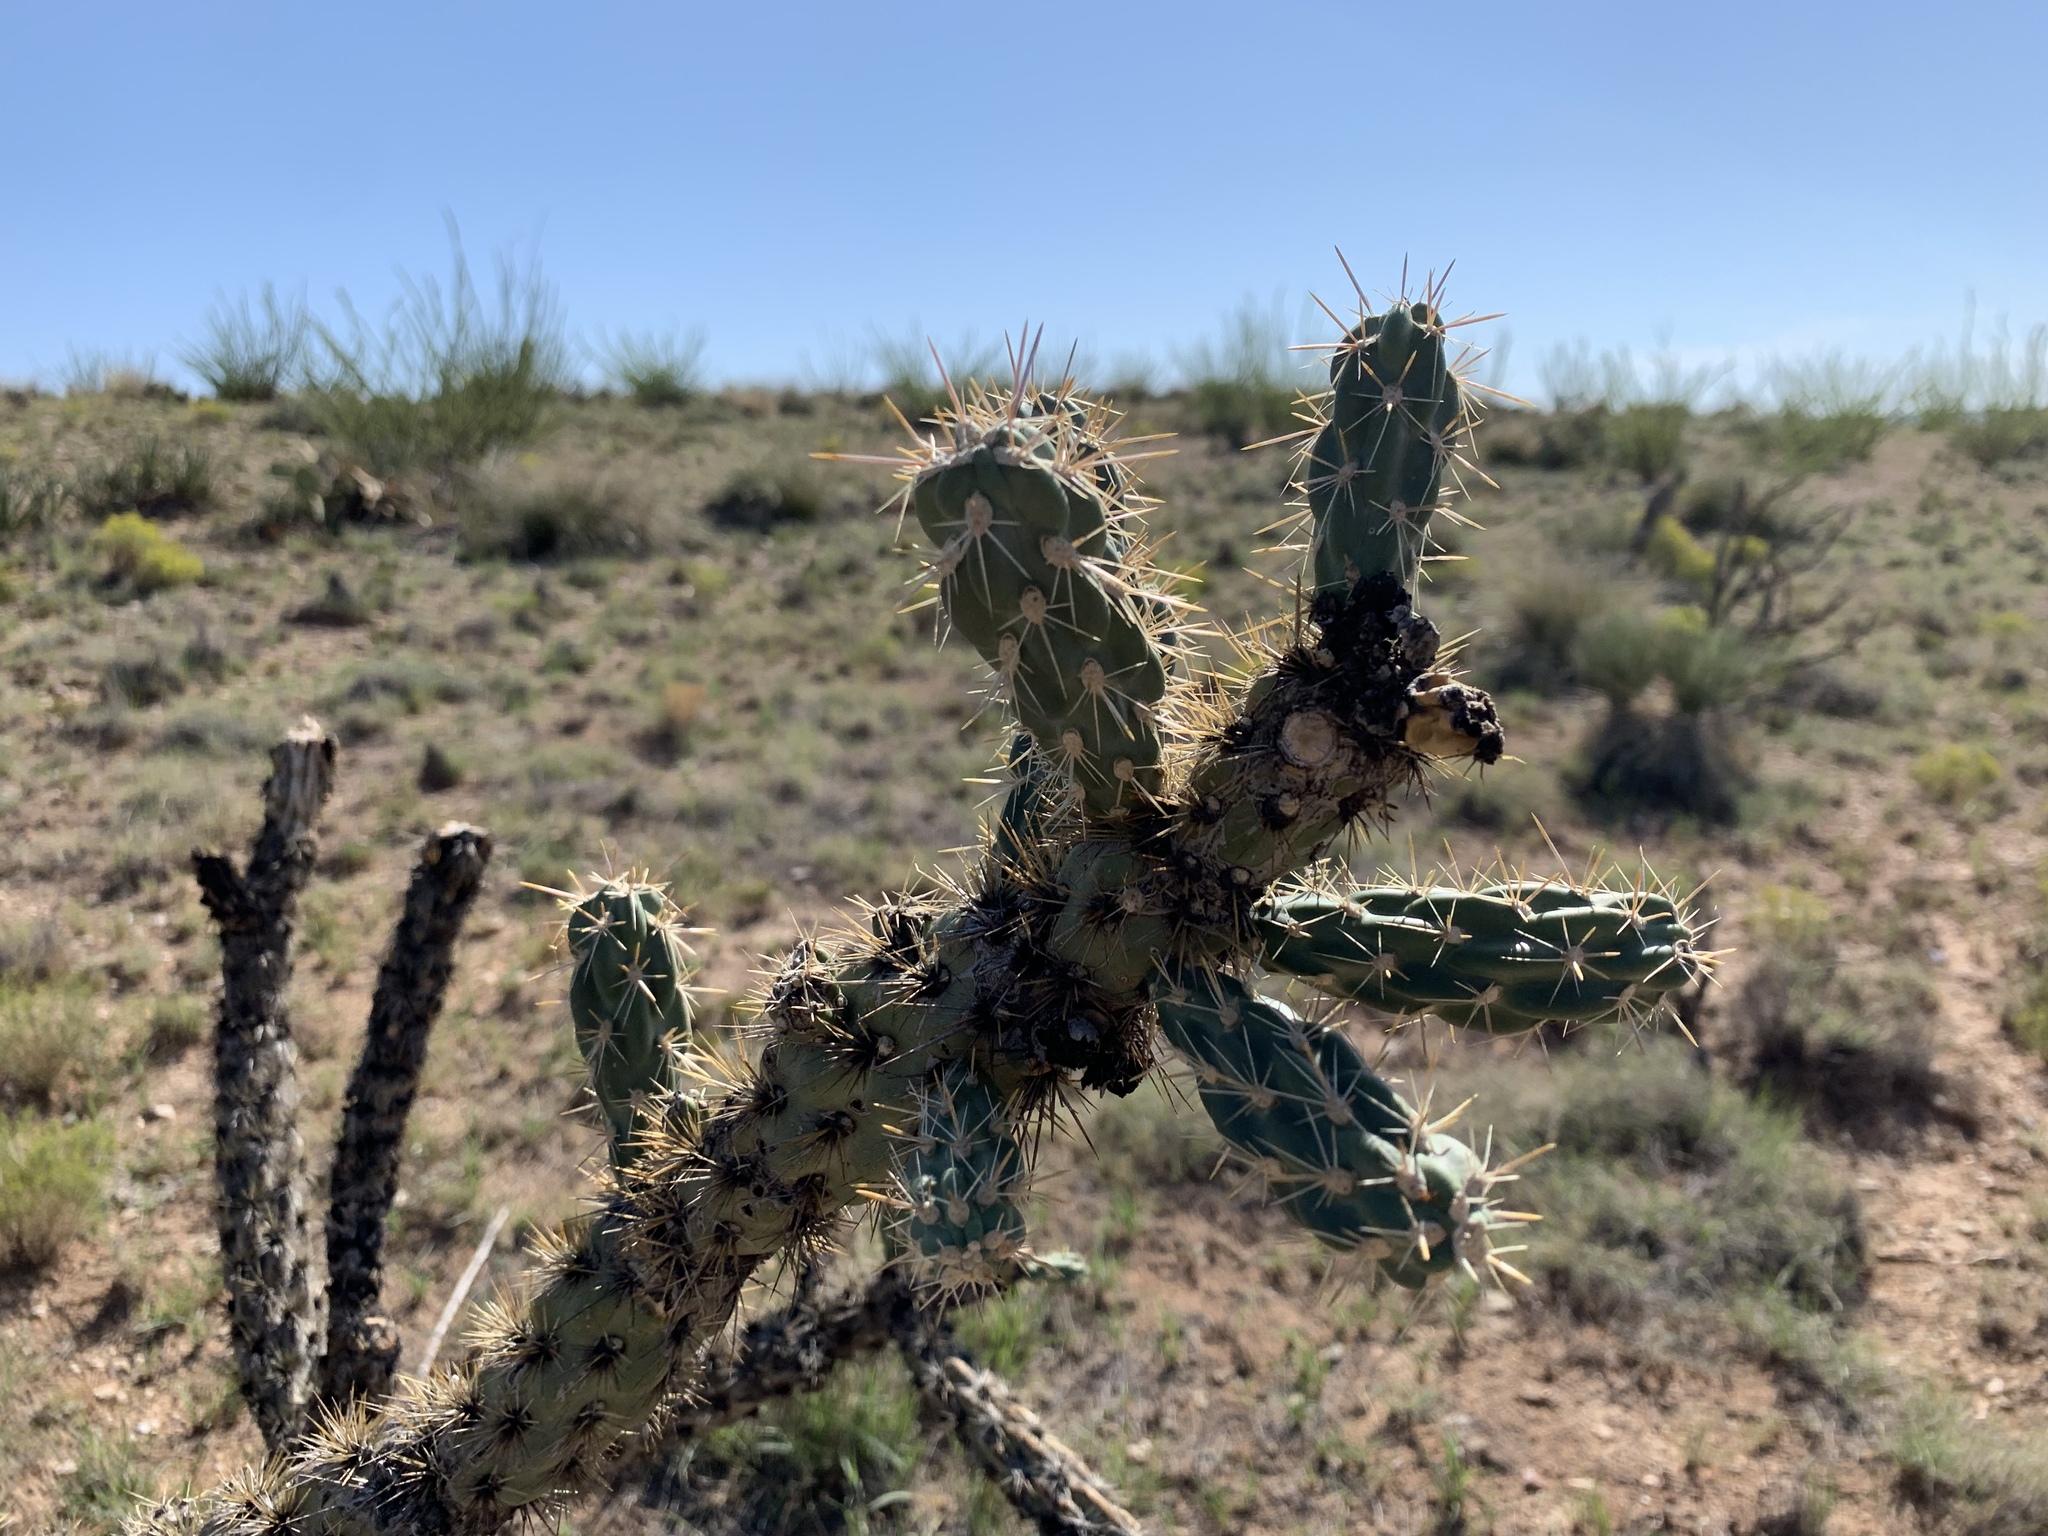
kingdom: Plantae
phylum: Tracheophyta
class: Magnoliopsida
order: Caryophyllales
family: Cactaceae
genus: Cylindropuntia
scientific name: Cylindropuntia imbricata
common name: Candelabrum cactus
